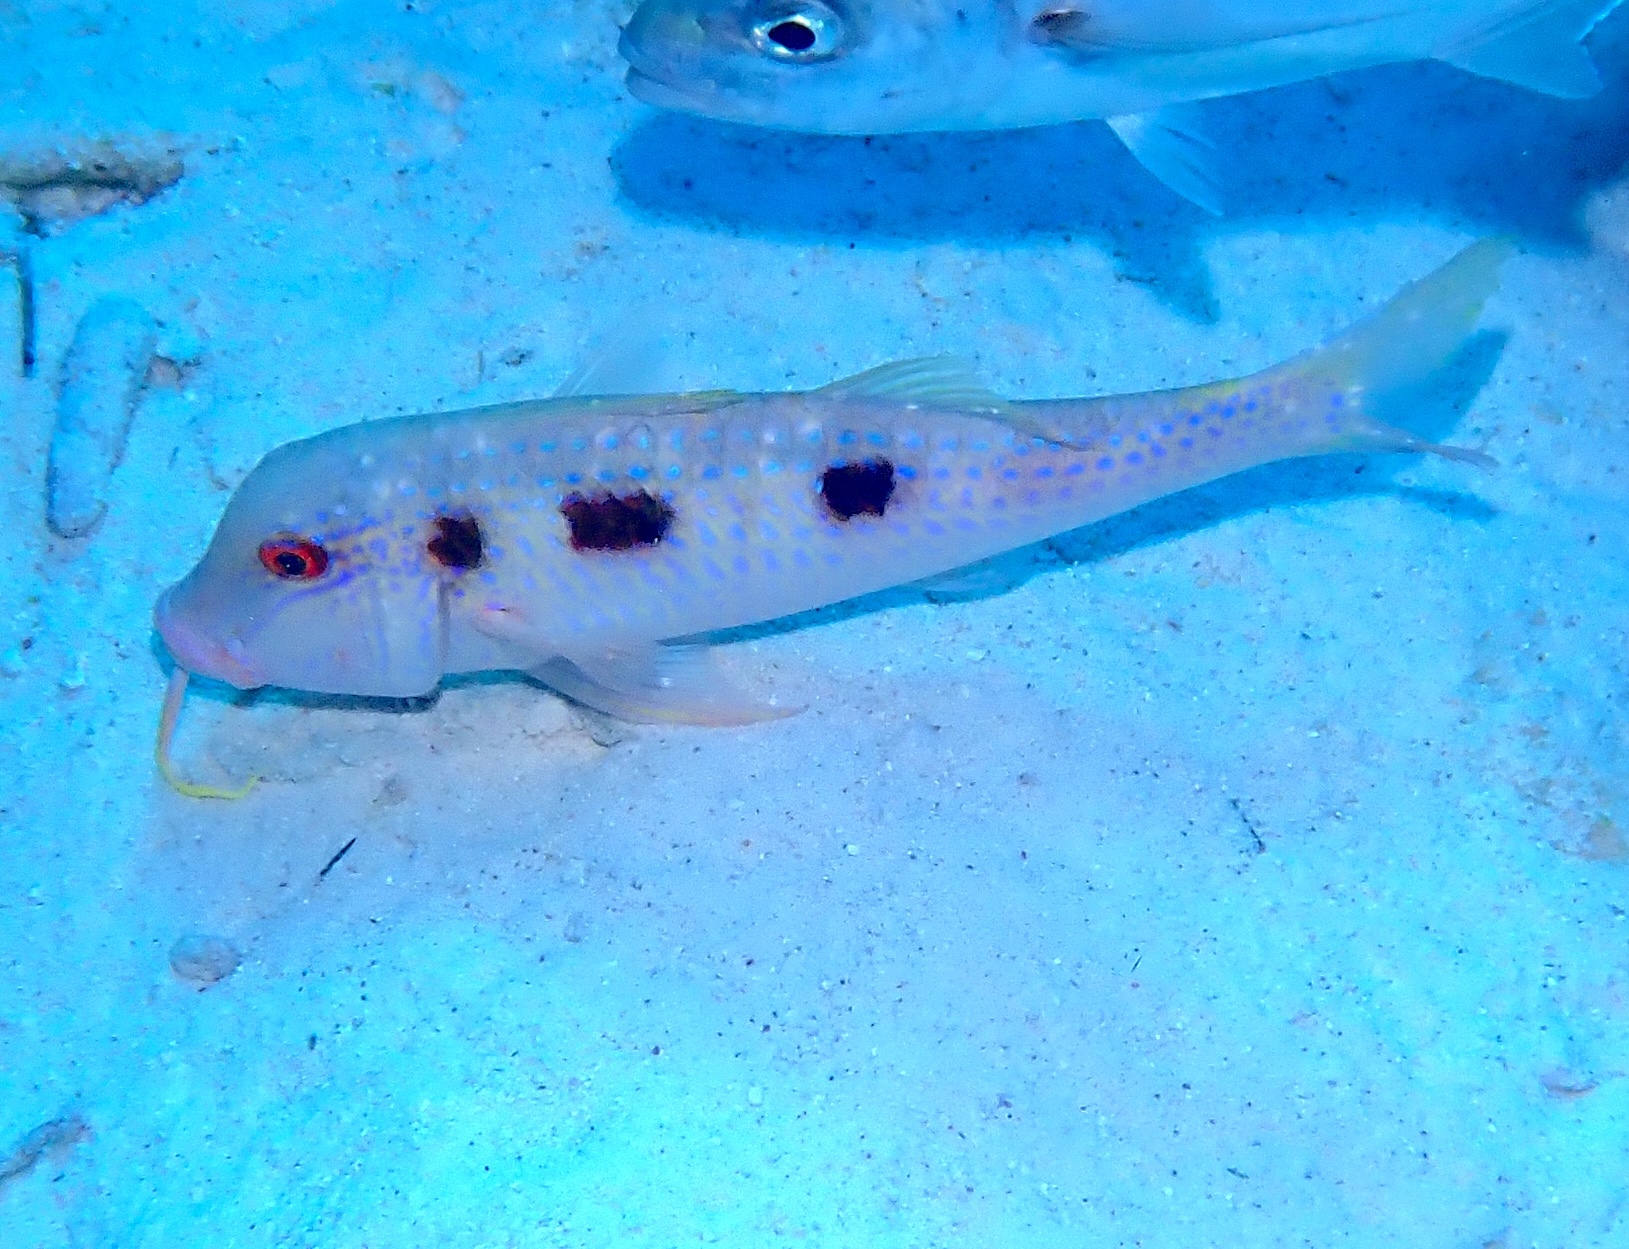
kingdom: Animalia
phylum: Chordata
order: Perciformes
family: Mullidae
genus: Pseudupeneus
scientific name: Pseudupeneus maculatus
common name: Spotted goatfish
